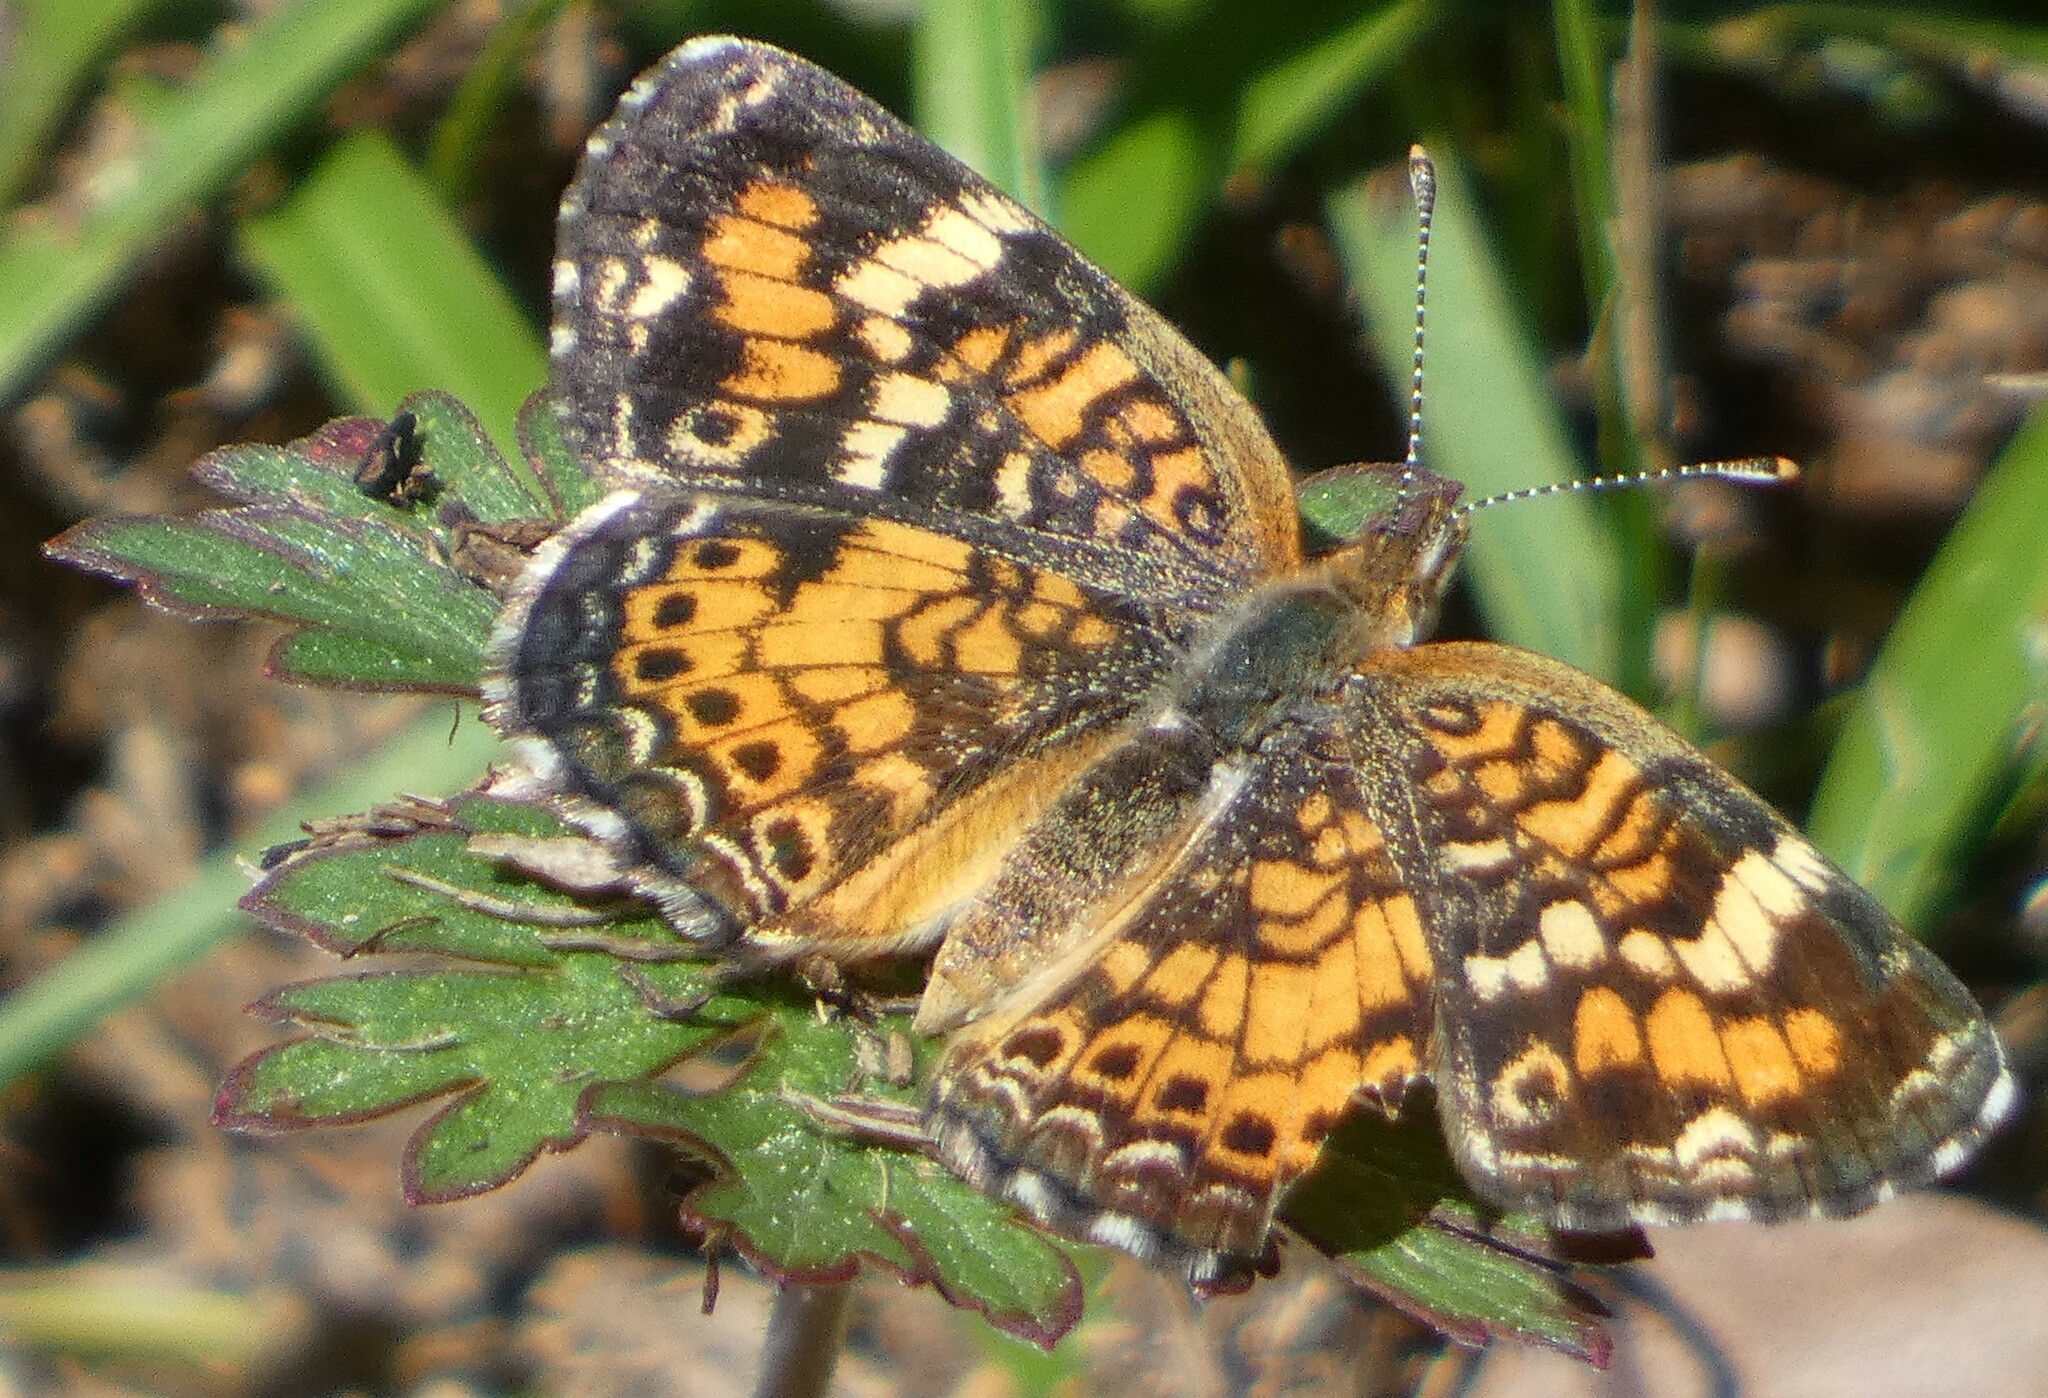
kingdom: Animalia
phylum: Arthropoda
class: Insecta
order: Lepidoptera
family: Nymphalidae
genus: Phyciodes
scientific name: Phyciodes phaon
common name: Phaon crescent
